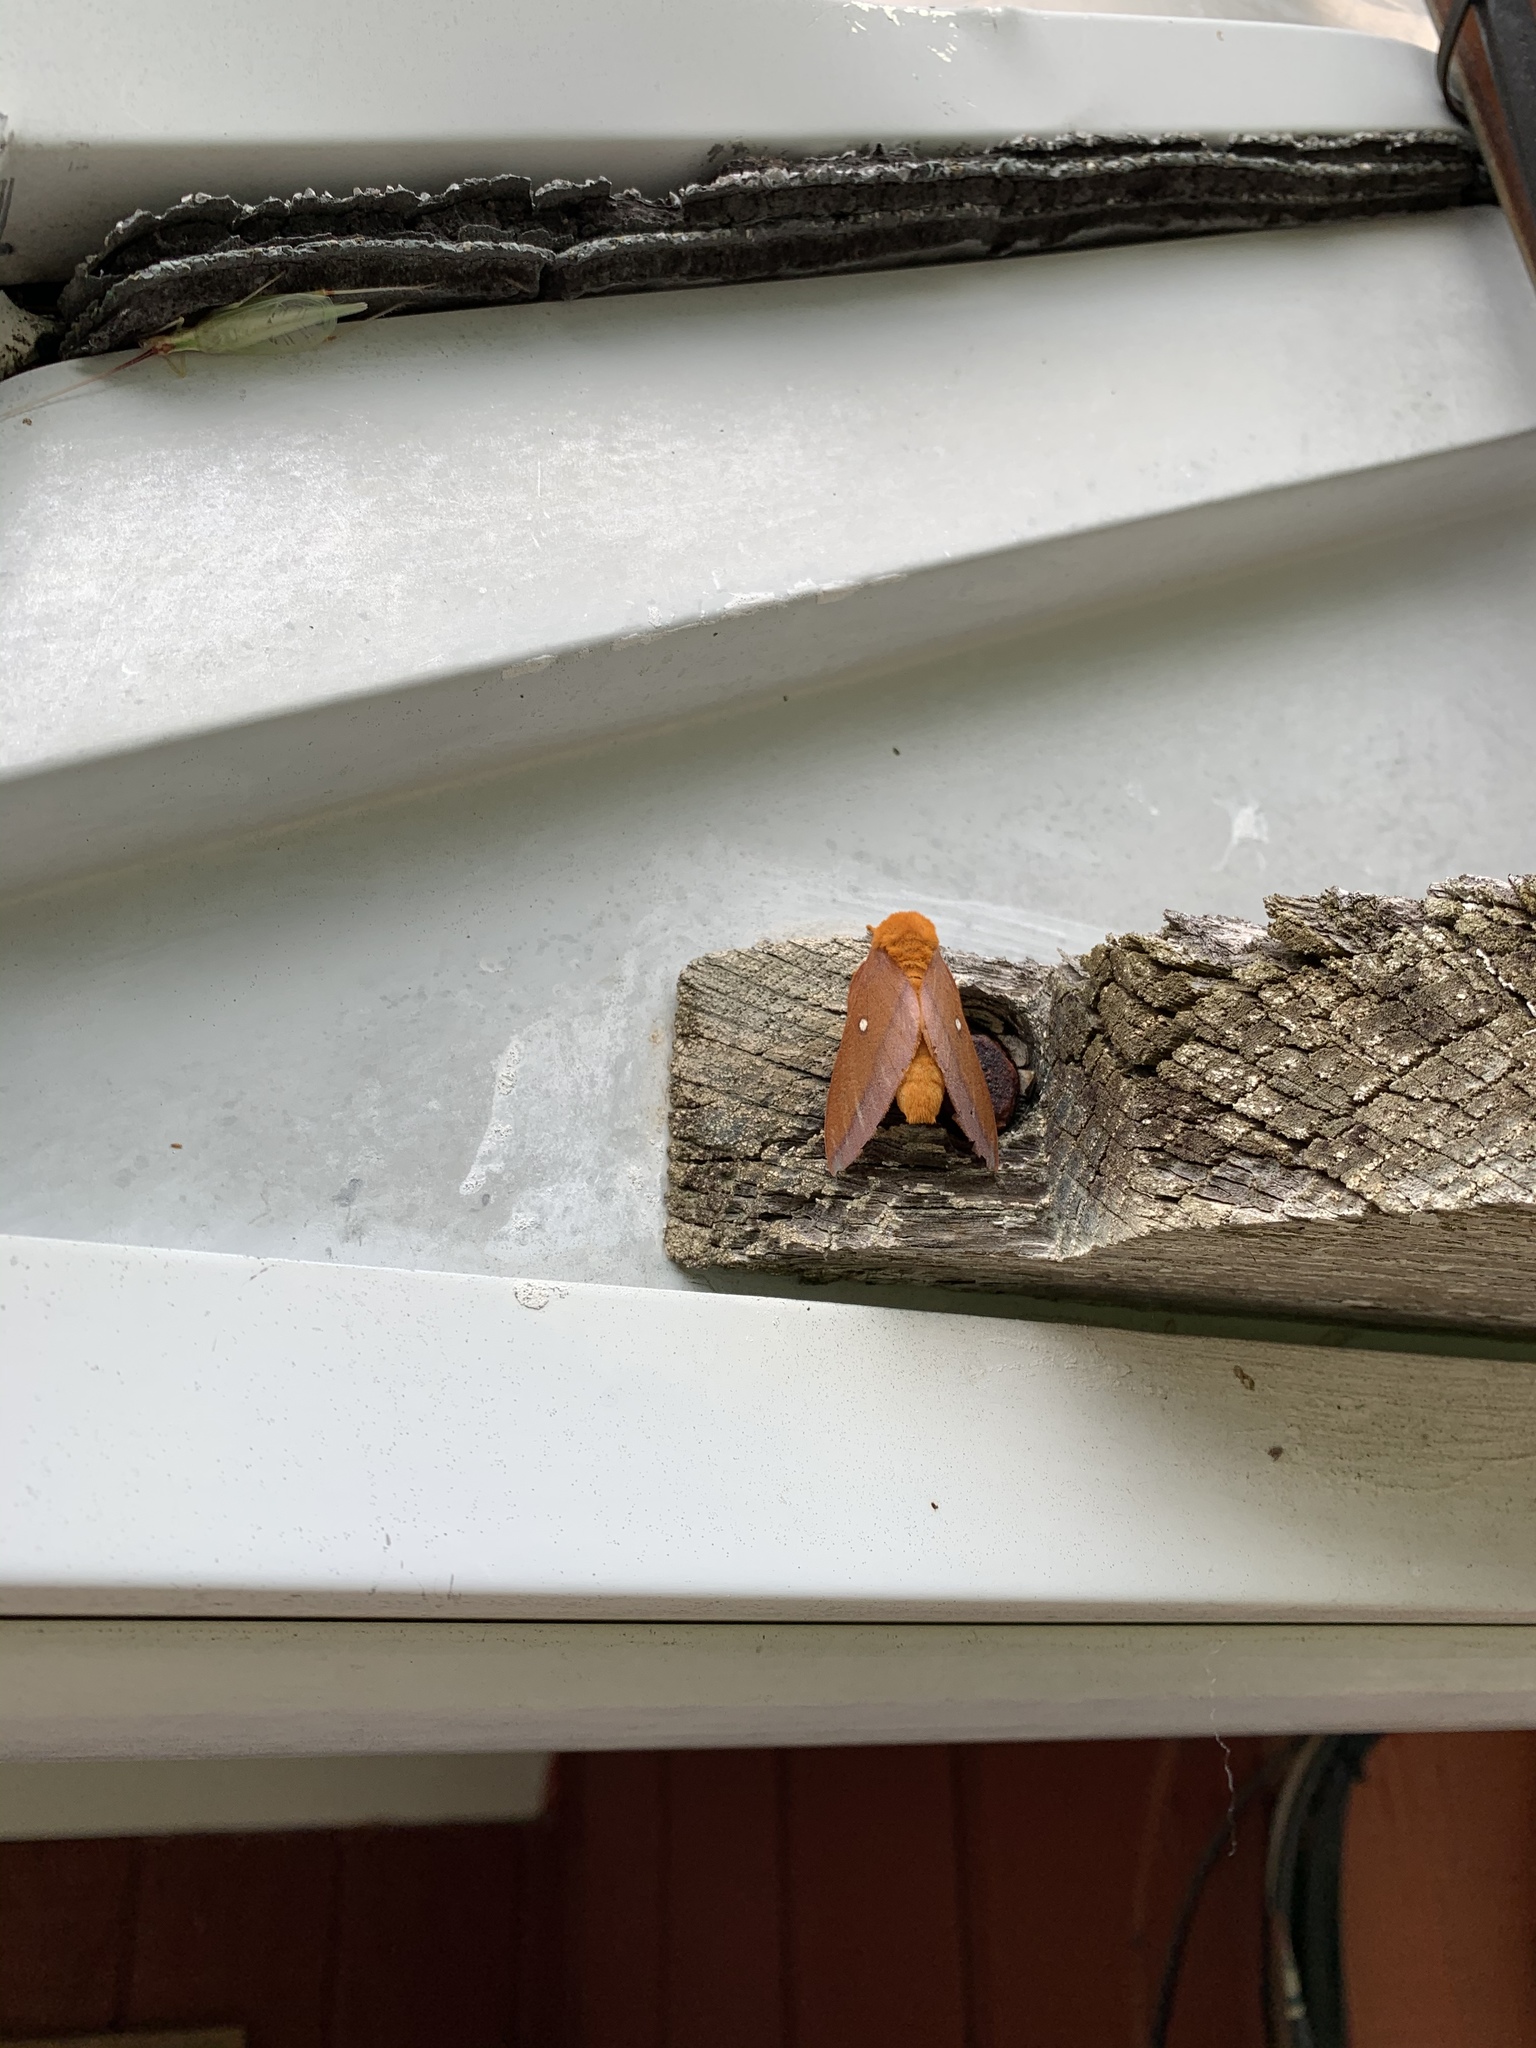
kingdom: Animalia
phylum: Arthropoda
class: Insecta
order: Lepidoptera
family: Saturniidae
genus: Anisota
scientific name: Anisota virginiensis
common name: Pink striped oakworm moth
